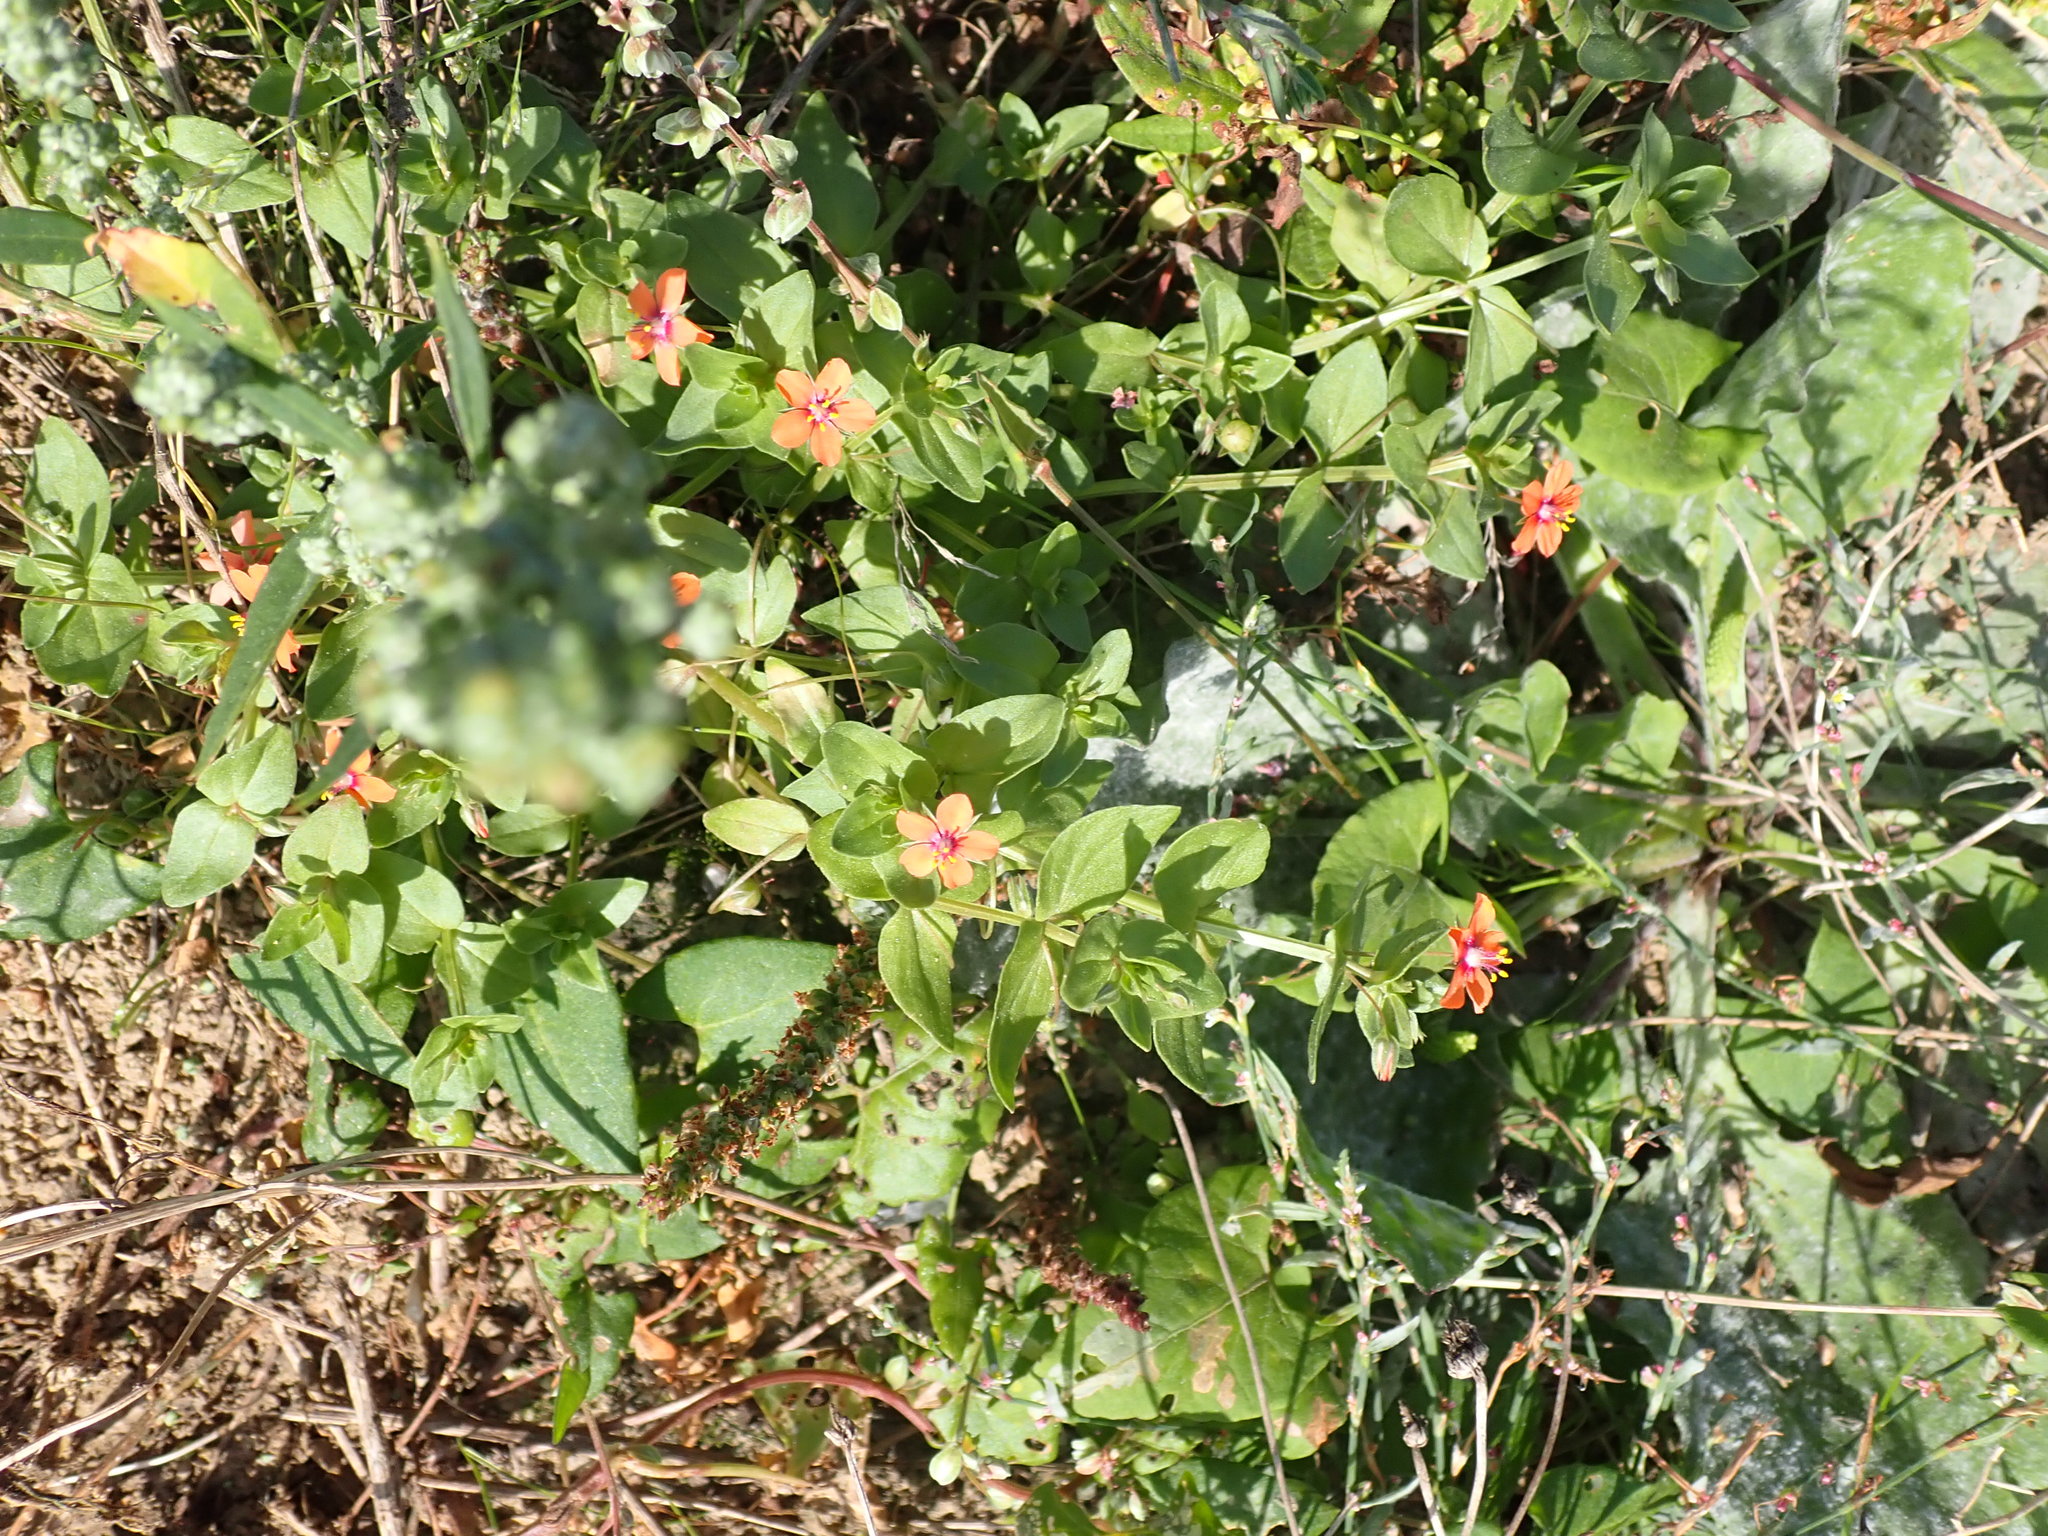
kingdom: Plantae
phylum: Tracheophyta
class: Magnoliopsida
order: Ericales
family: Primulaceae
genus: Lysimachia
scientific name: Lysimachia arvensis
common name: Scarlet pimpernel
